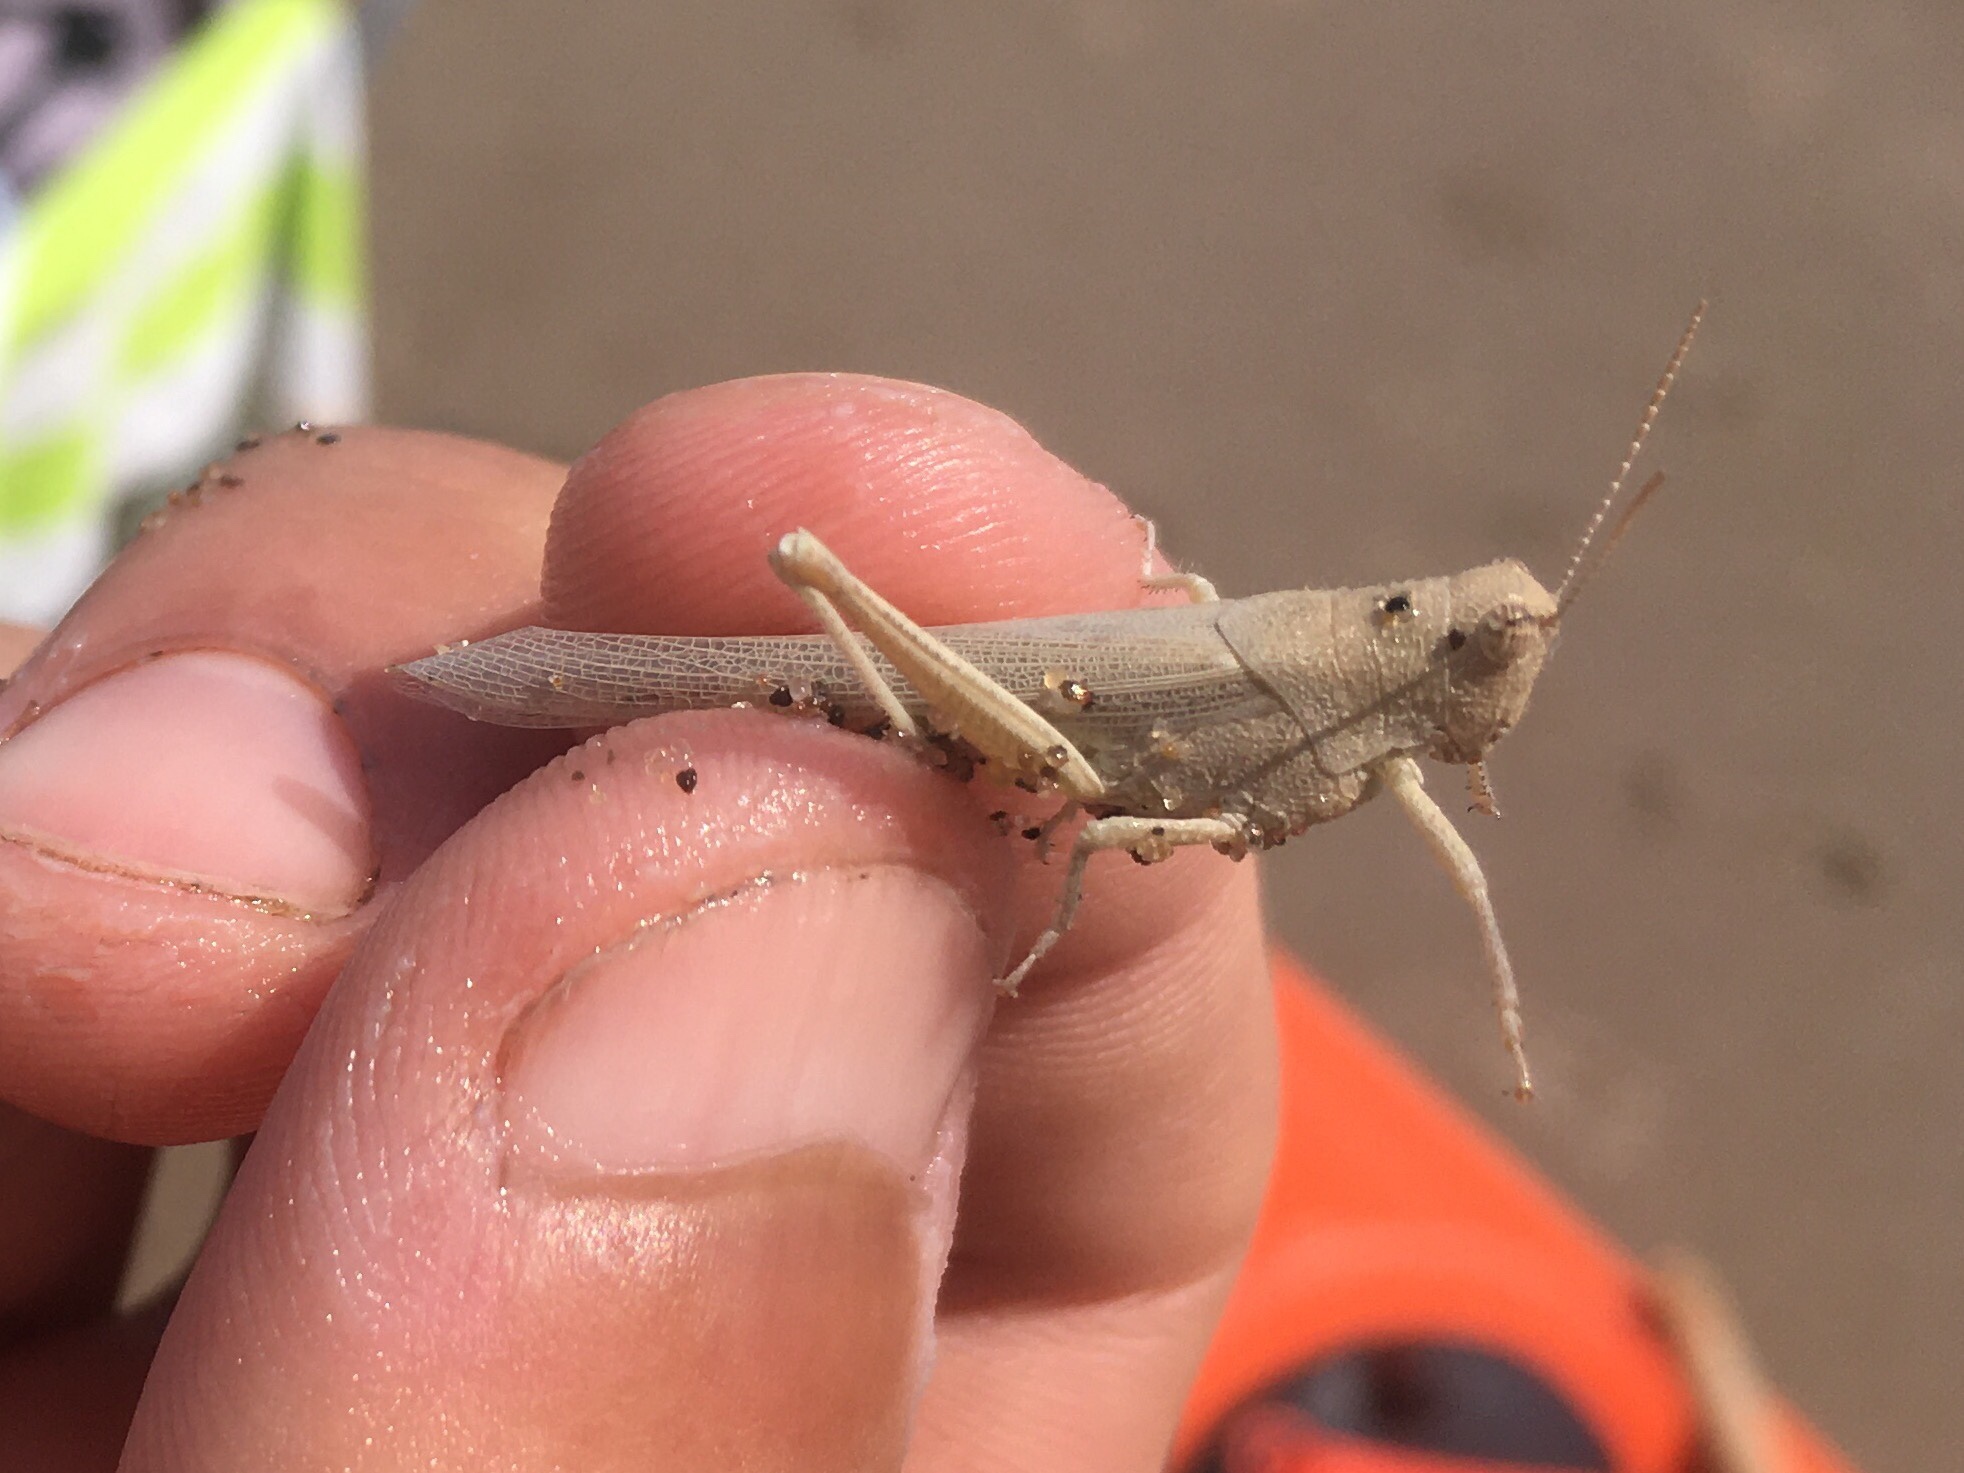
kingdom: Animalia
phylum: Arthropoda
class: Insecta
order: Orthoptera
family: Ommexechidae
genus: Clarazella
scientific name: Clarazella patagona
